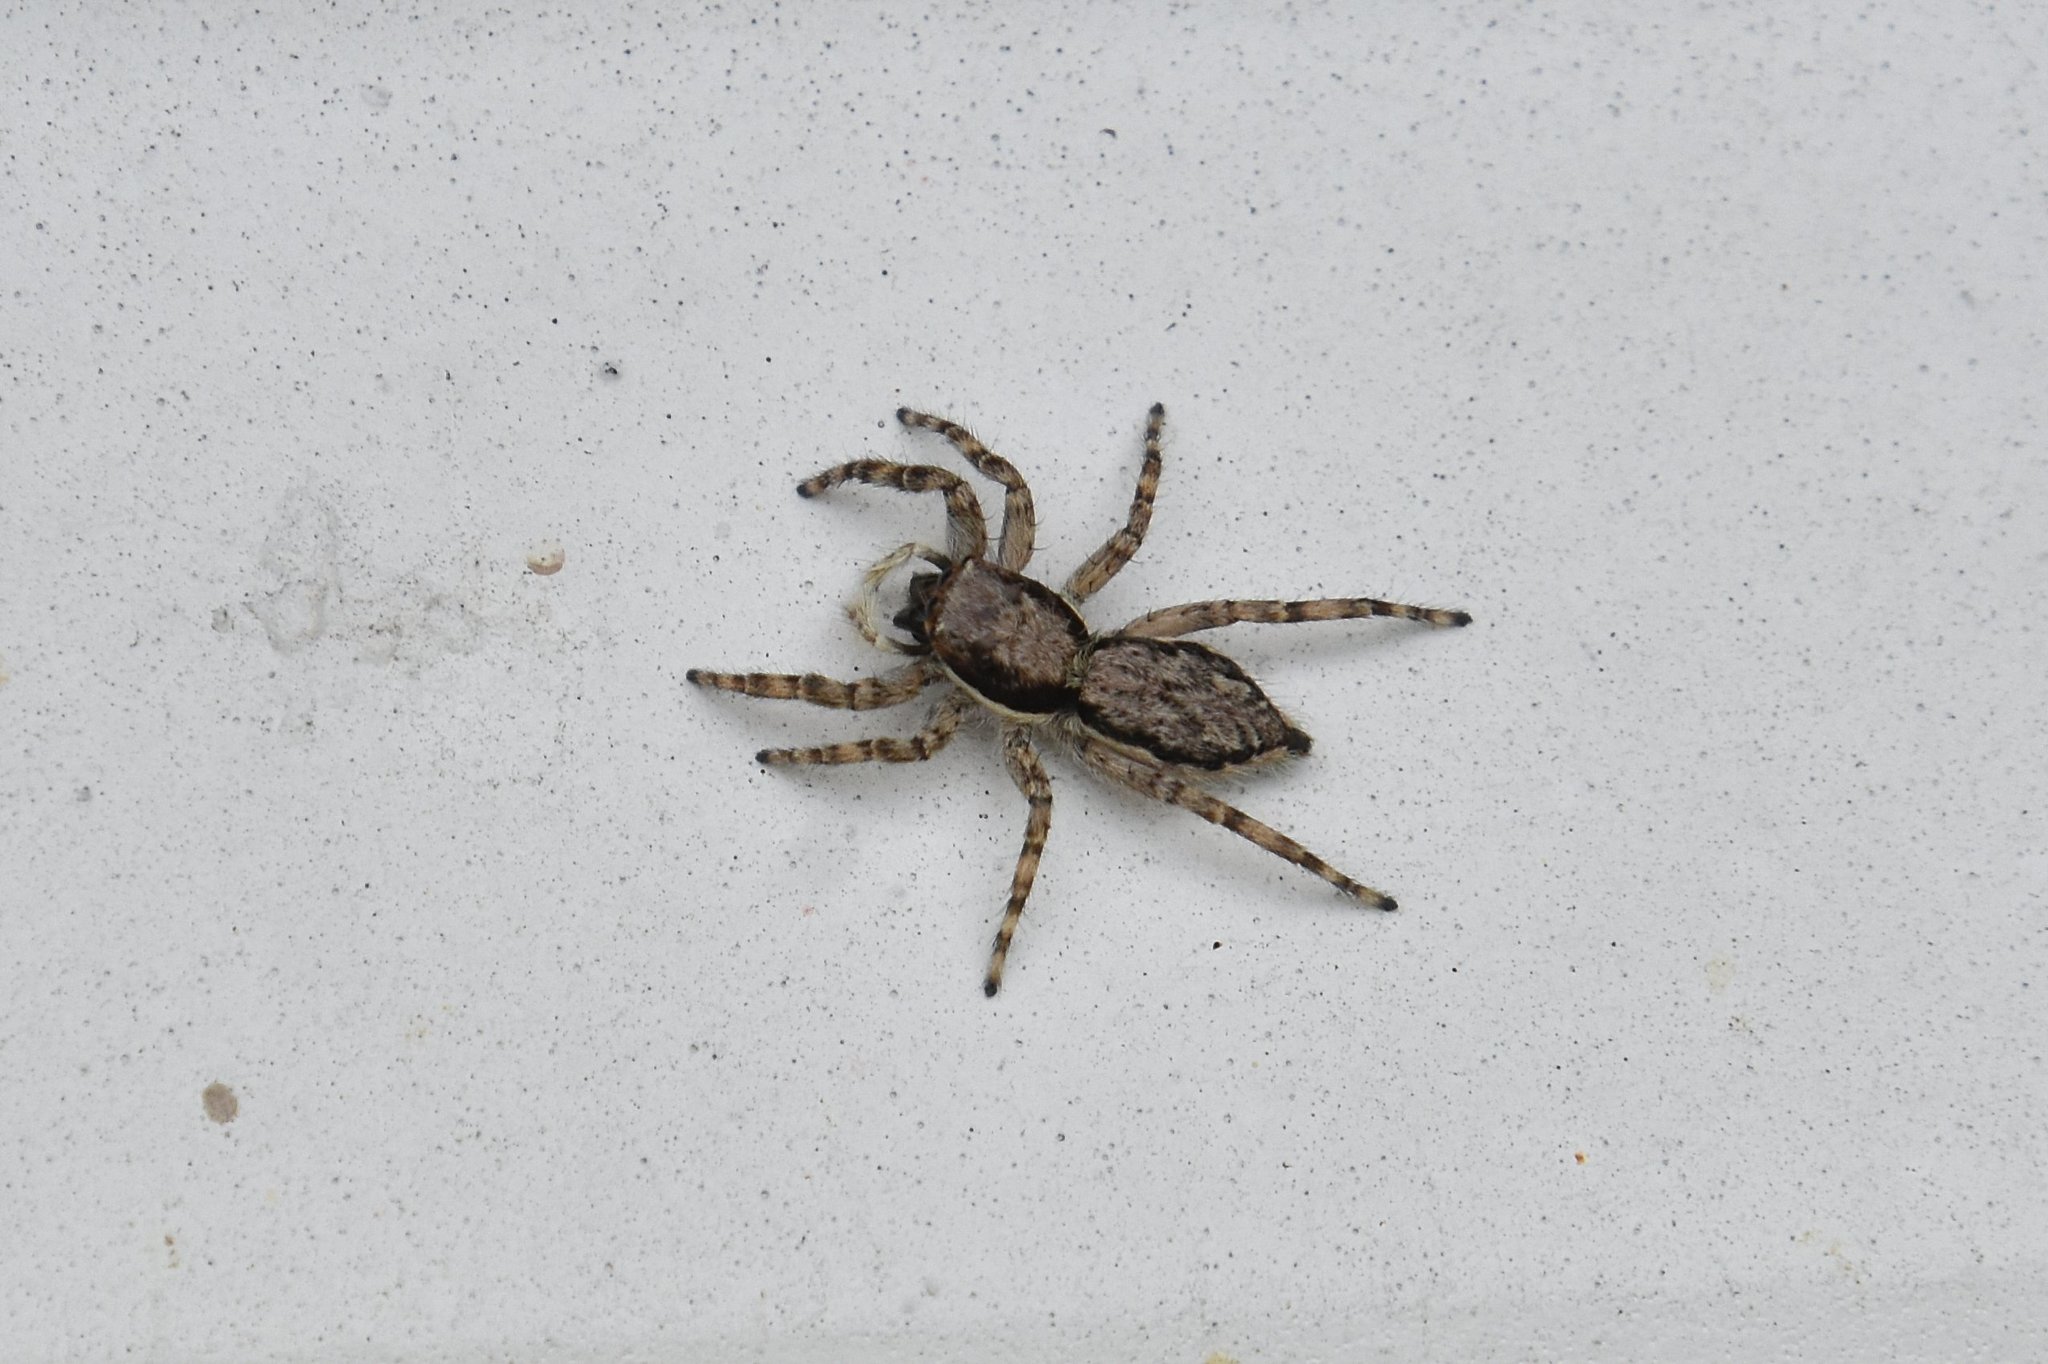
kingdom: Animalia
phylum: Arthropoda
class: Arachnida
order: Araneae
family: Salticidae
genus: Menemerus
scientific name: Menemerus bivittatus
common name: Gray wall jumper
